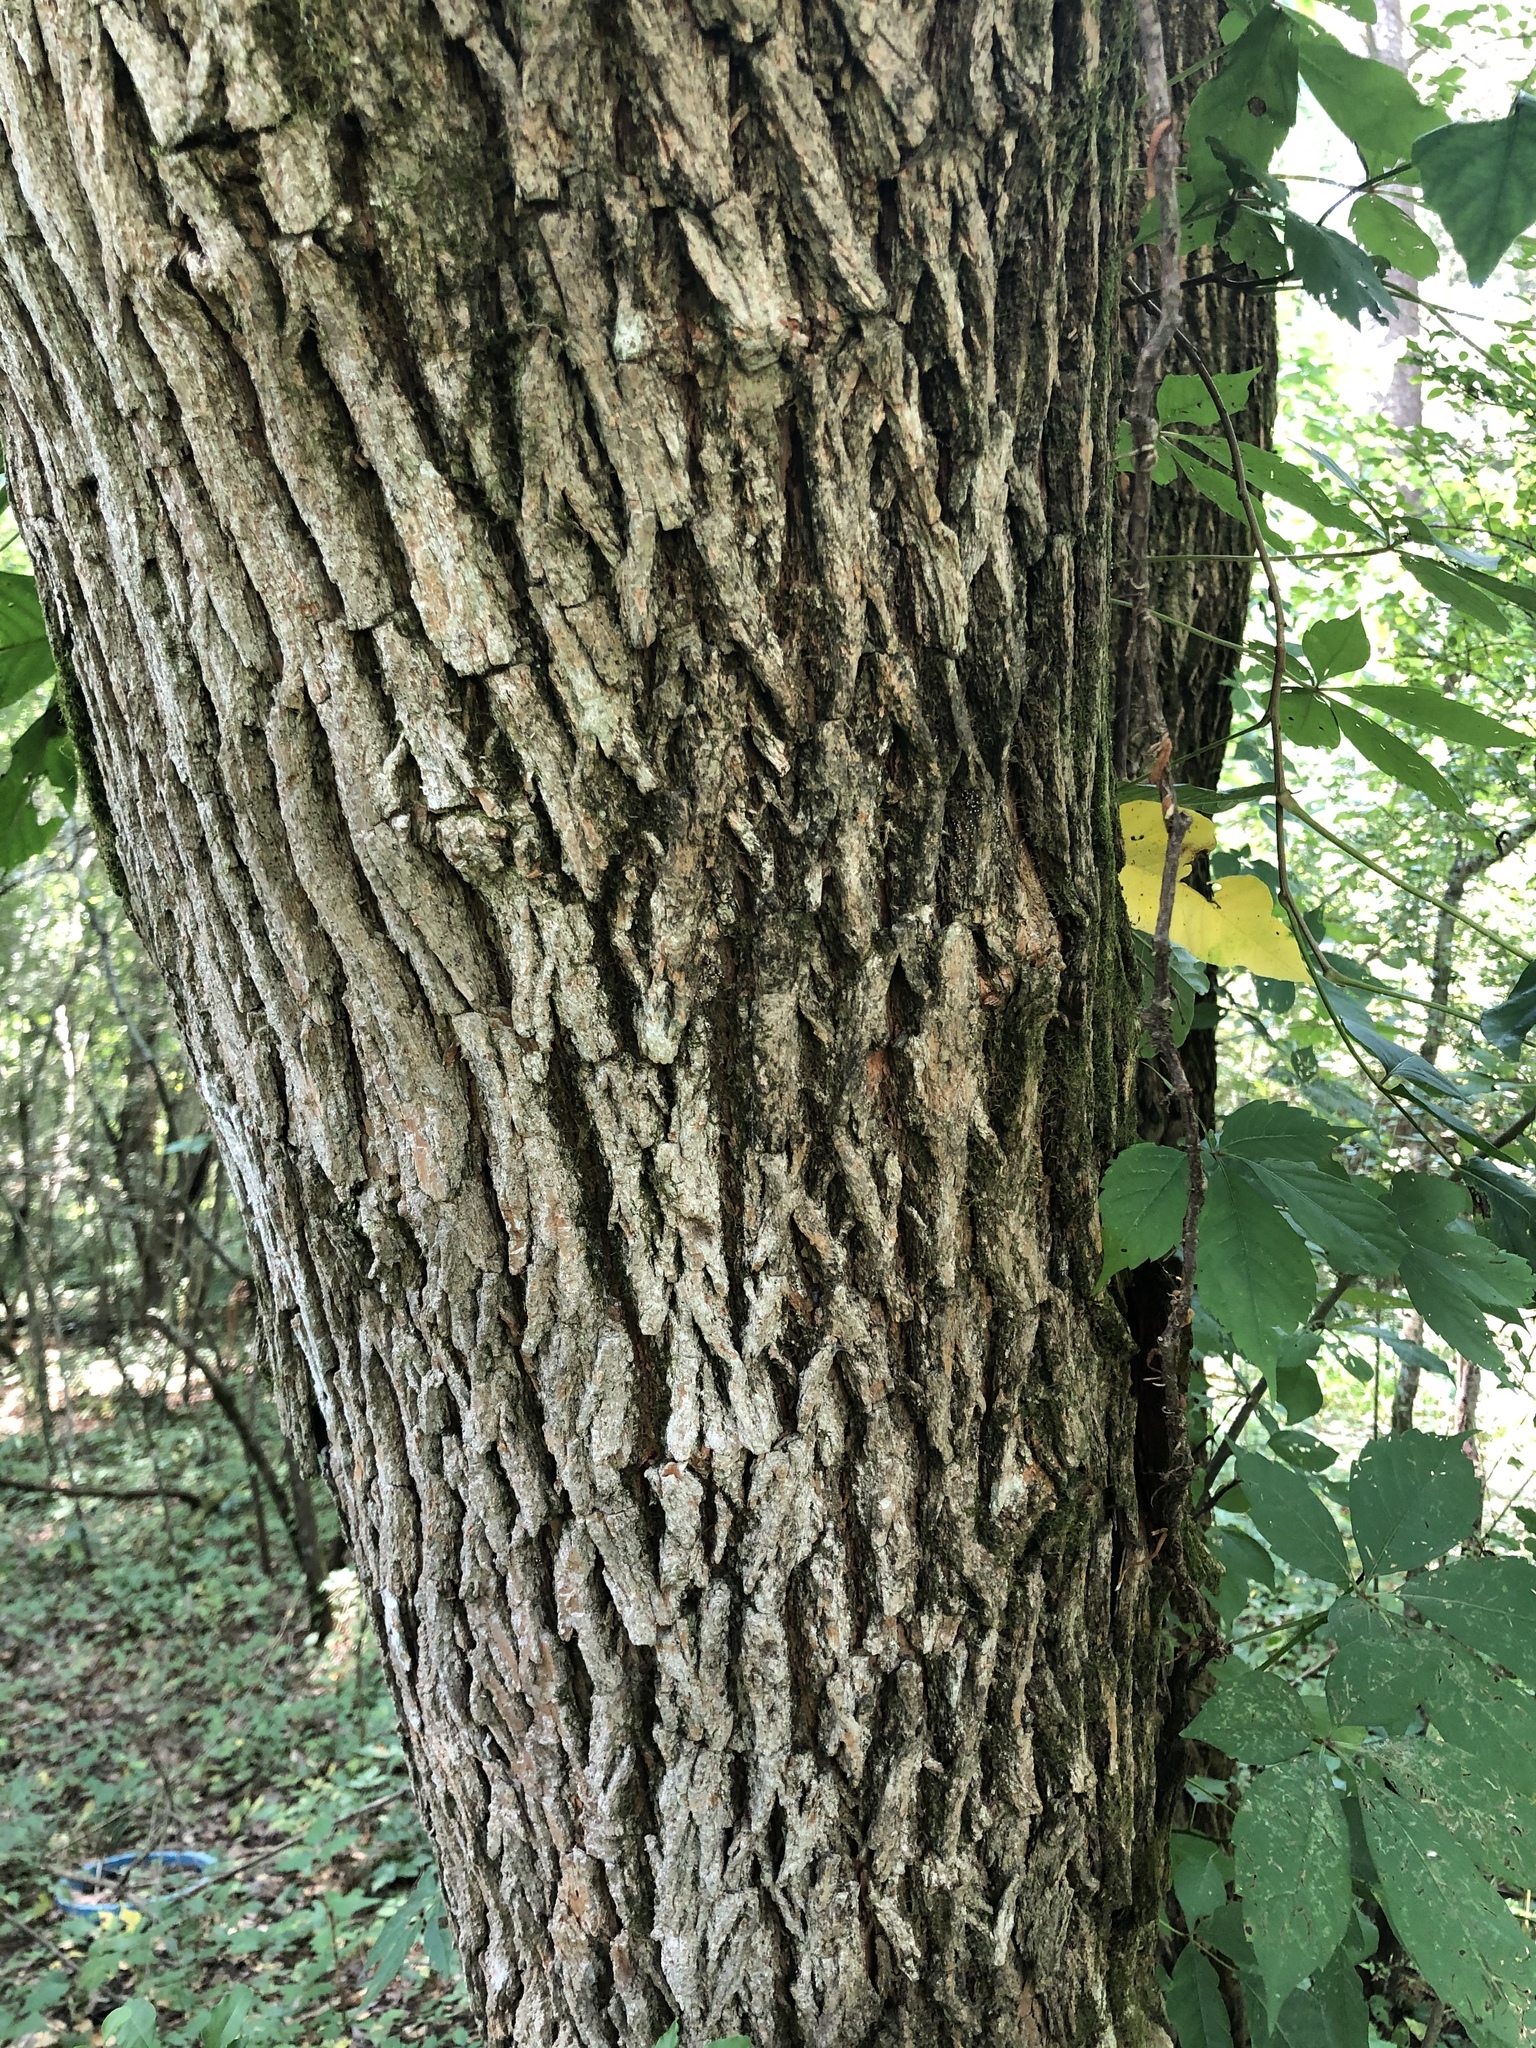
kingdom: Plantae
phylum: Tracheophyta
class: Magnoliopsida
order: Rosales
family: Moraceae
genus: Maclura
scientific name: Maclura pomifera
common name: Osage-orange
